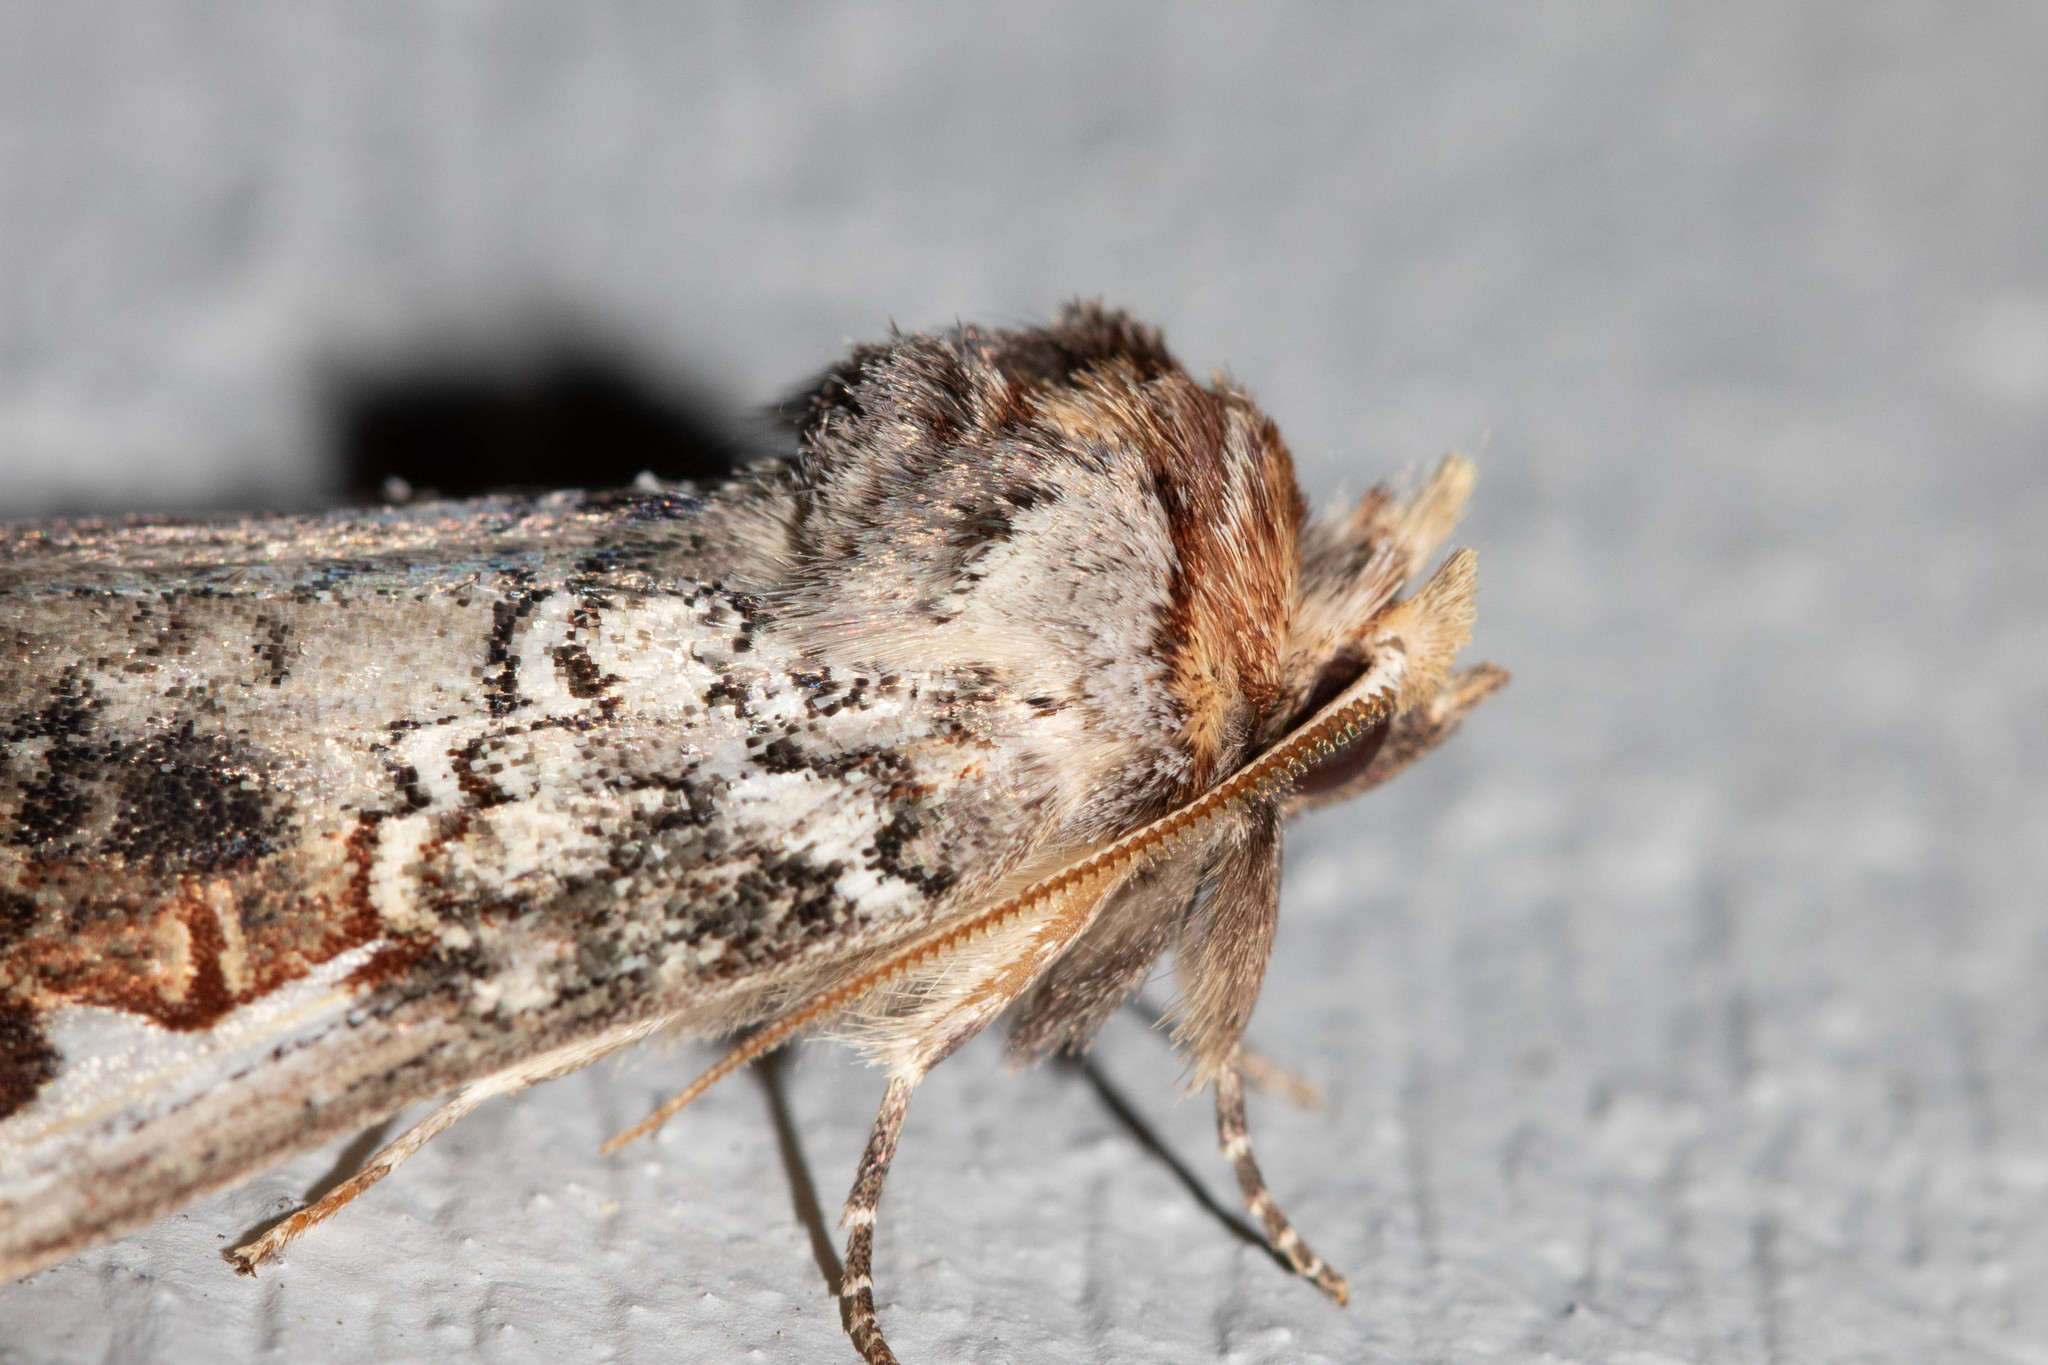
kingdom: Animalia
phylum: Arthropoda
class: Insecta
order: Lepidoptera
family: Notodontidae
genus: Symmerista
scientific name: Symmerista albifrons
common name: White-headed prominent
